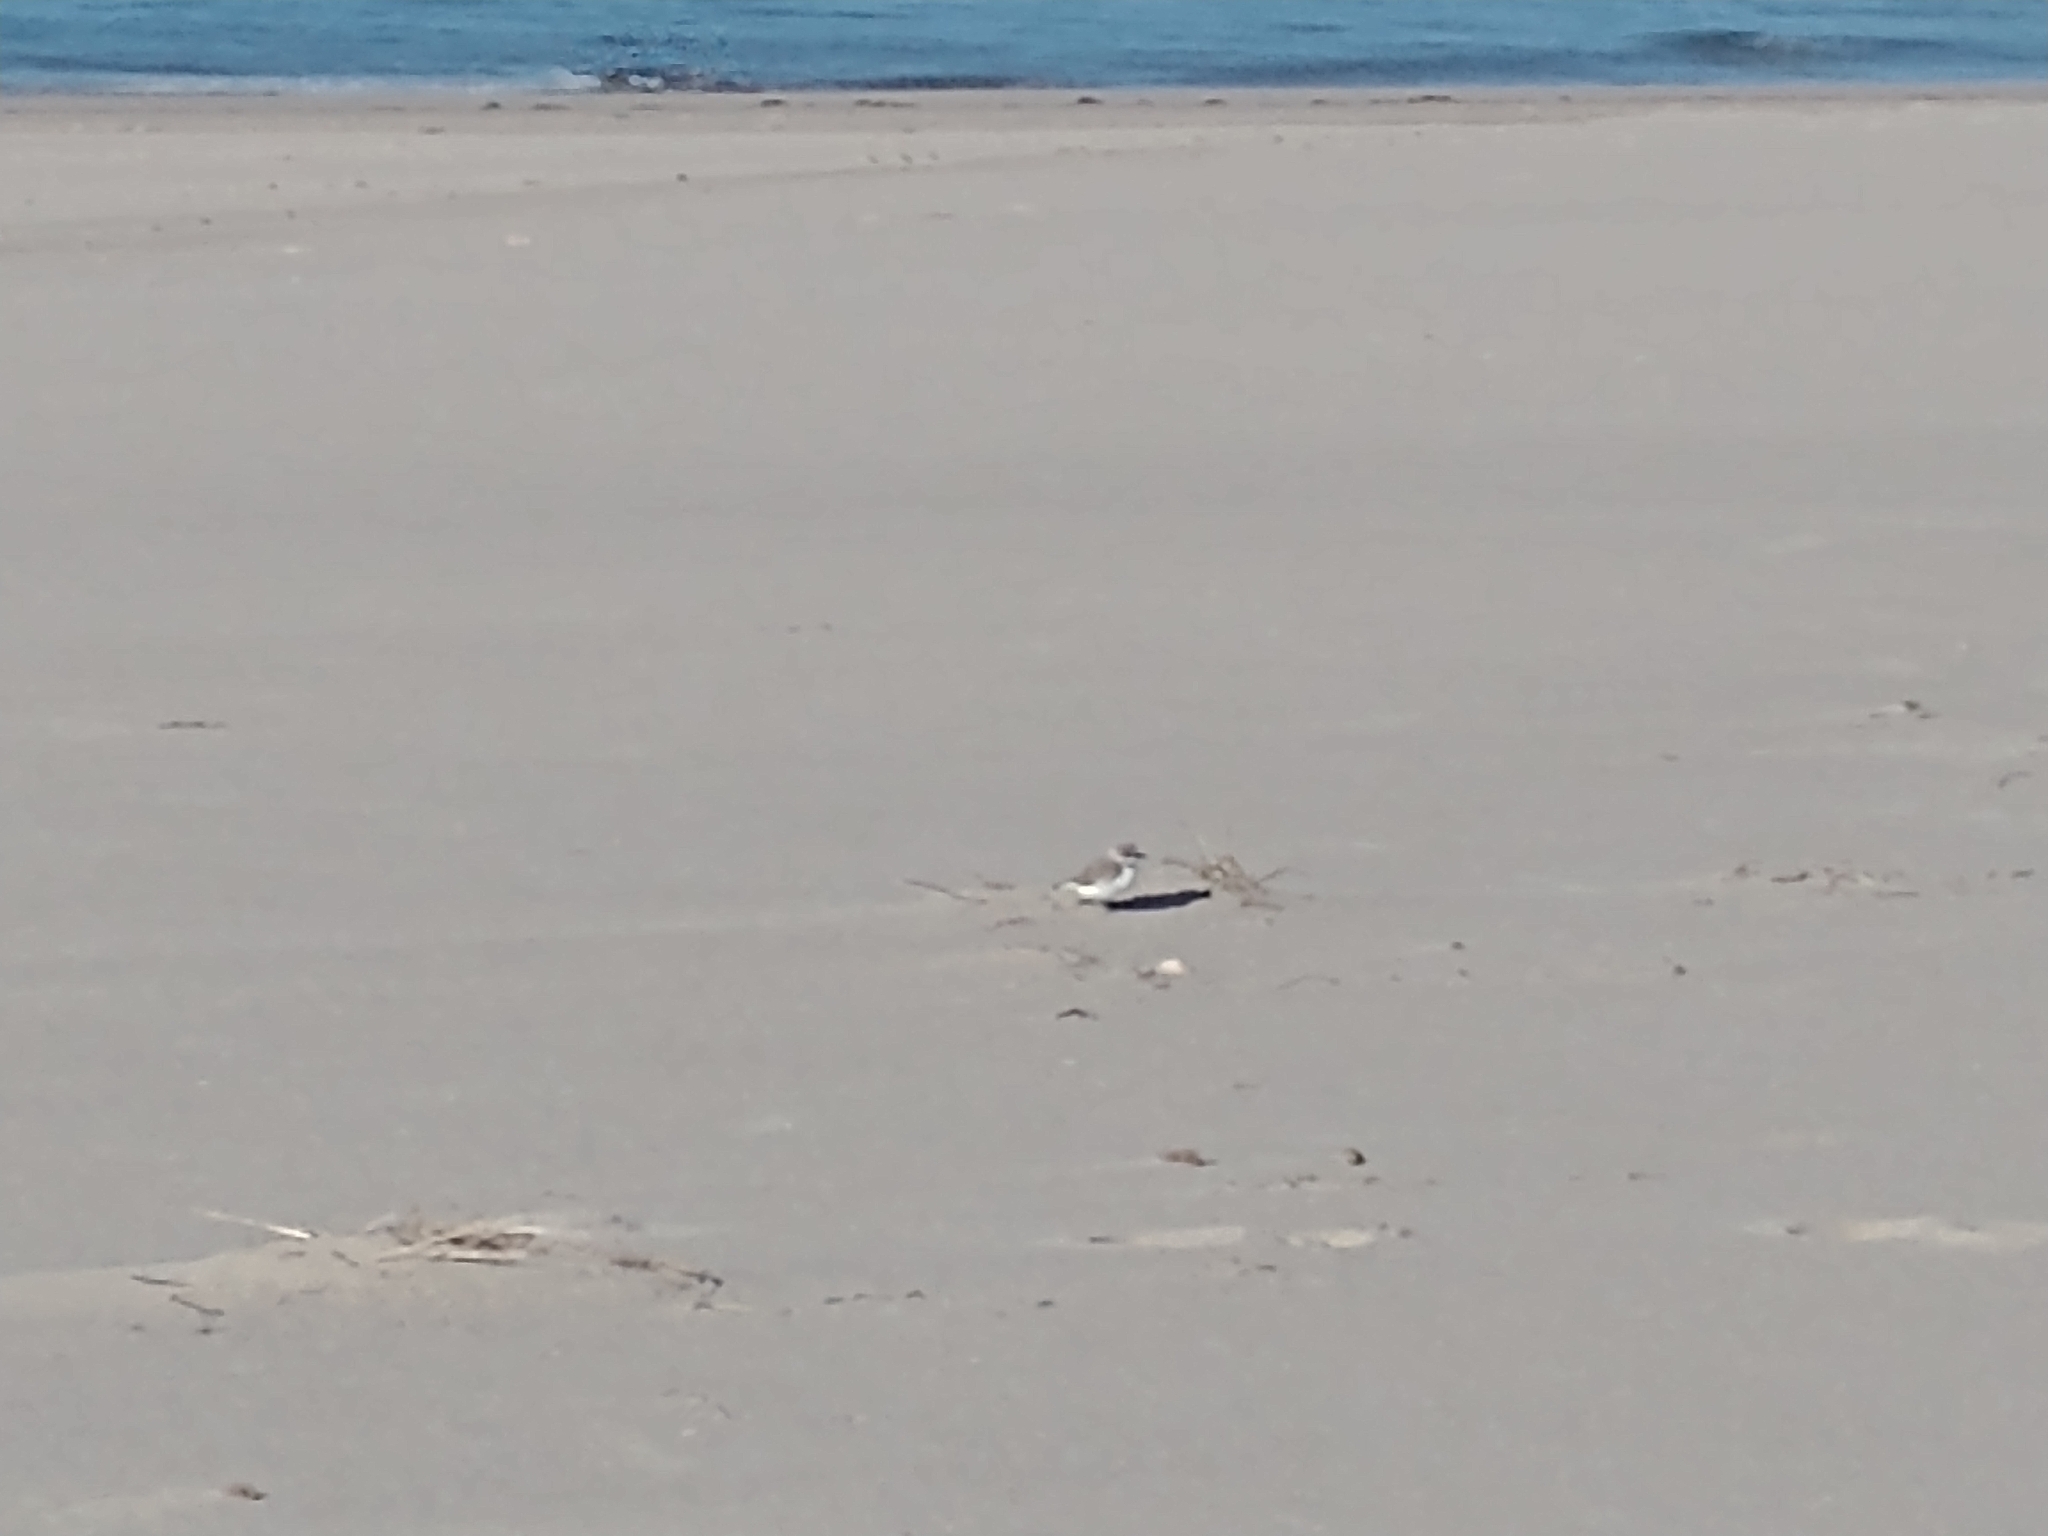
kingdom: Animalia
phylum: Chordata
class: Aves
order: Charadriiformes
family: Charadriidae
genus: Anarhynchus
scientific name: Anarhynchus
